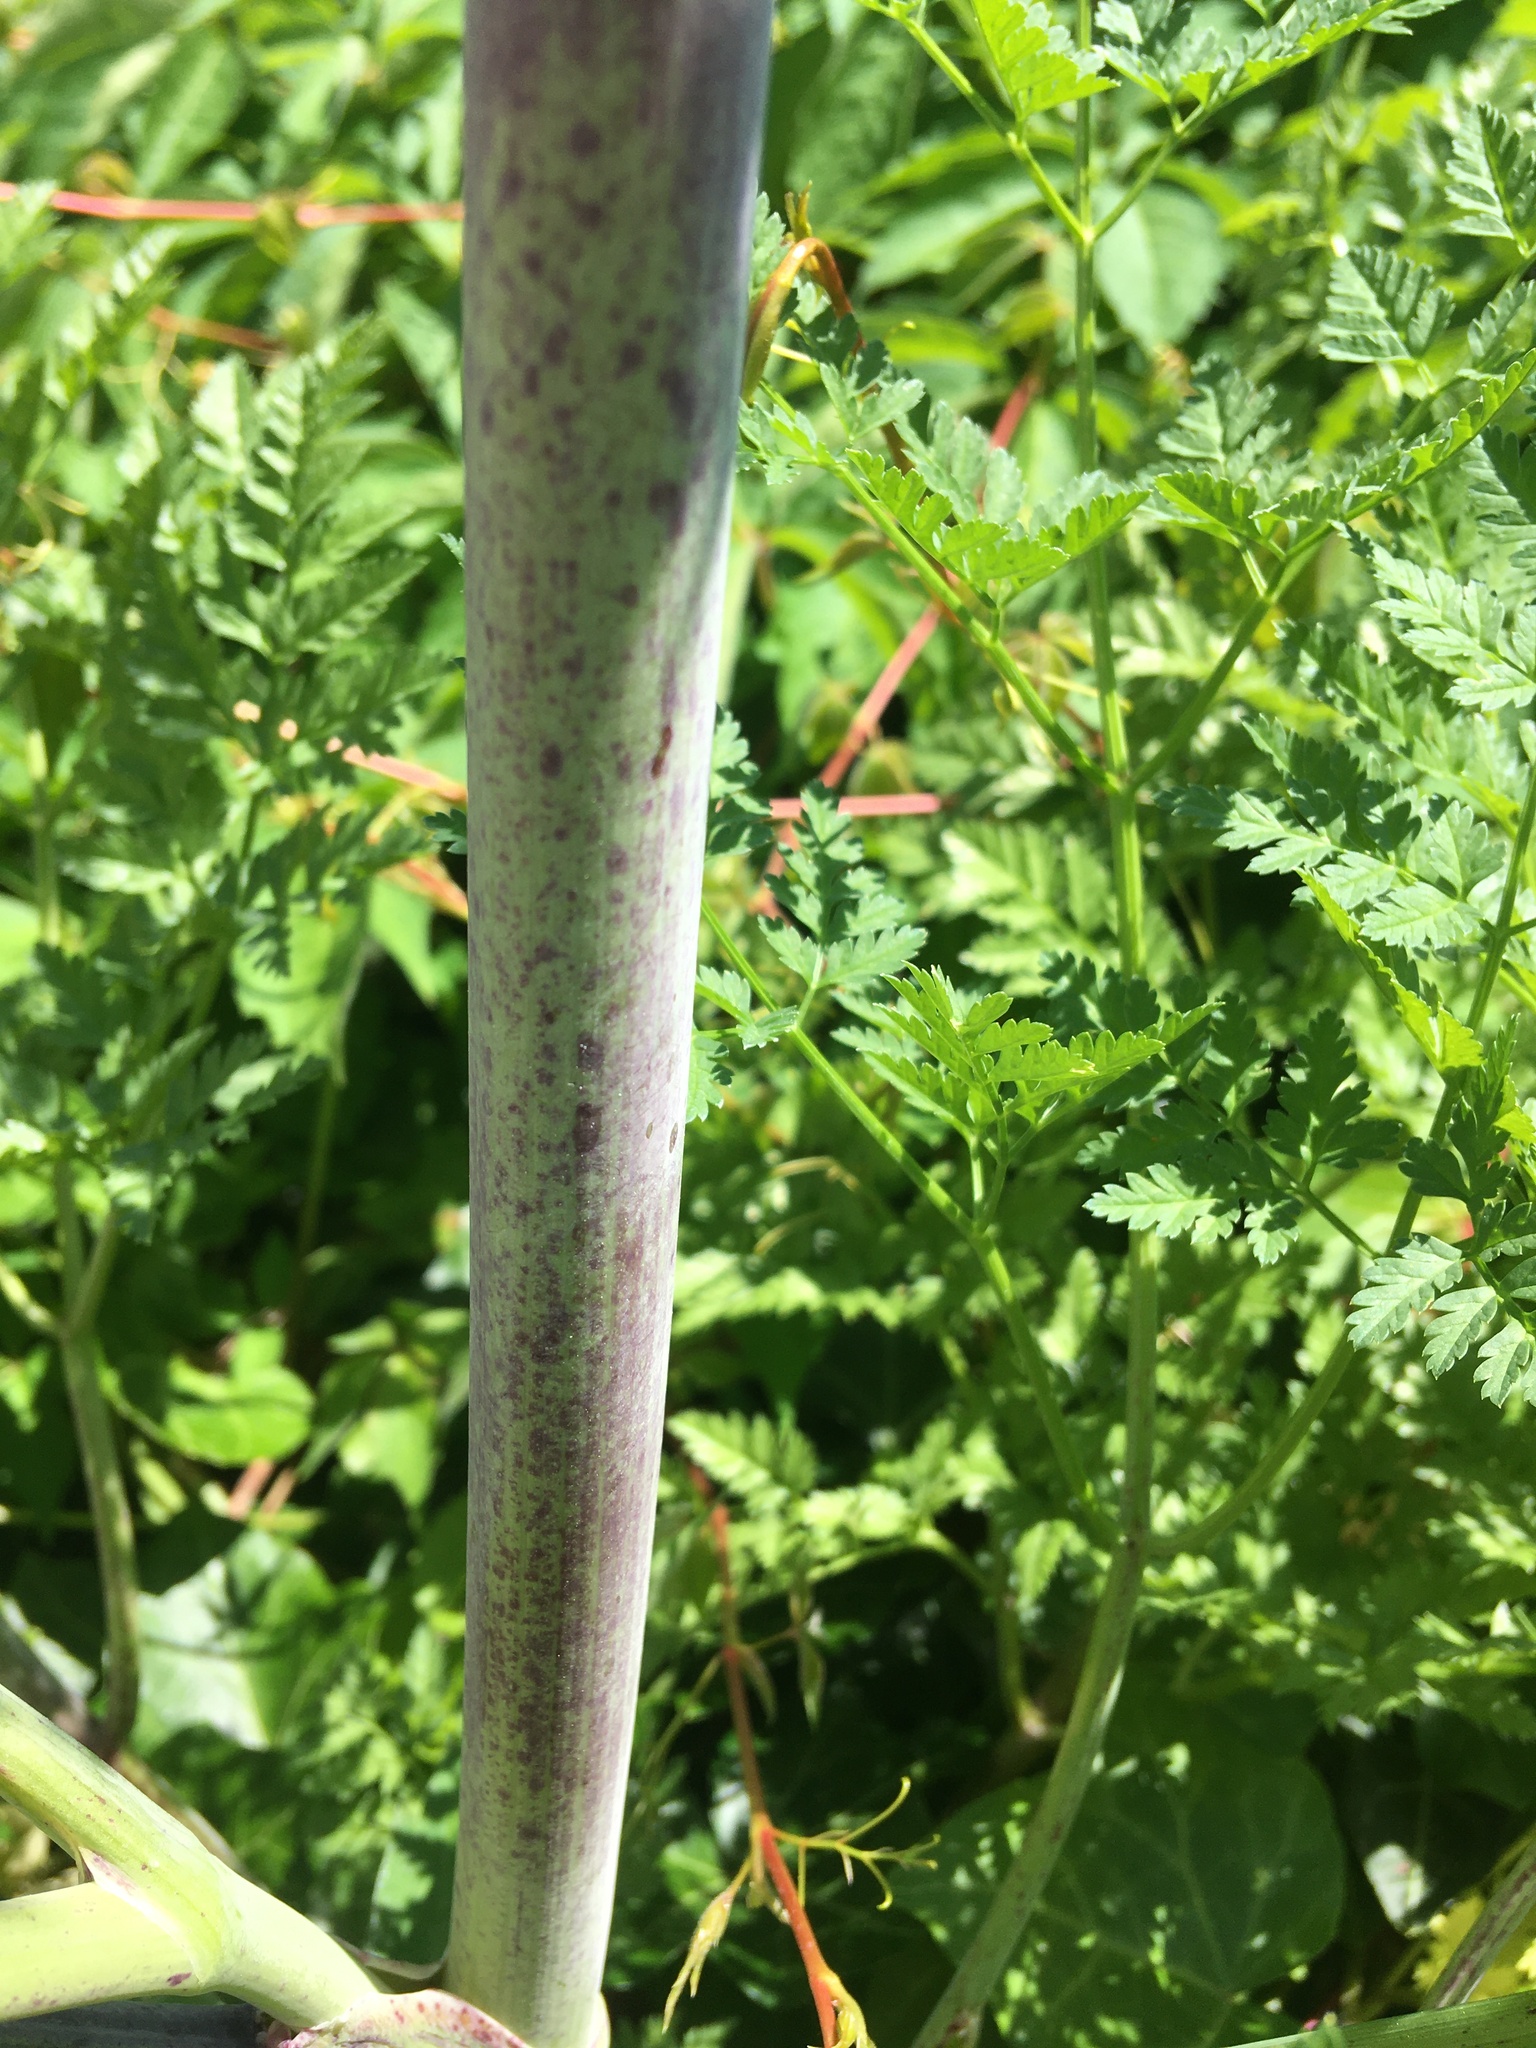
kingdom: Plantae
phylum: Tracheophyta
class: Magnoliopsida
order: Apiales
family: Apiaceae
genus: Conium
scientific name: Conium maculatum
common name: Hemlock
